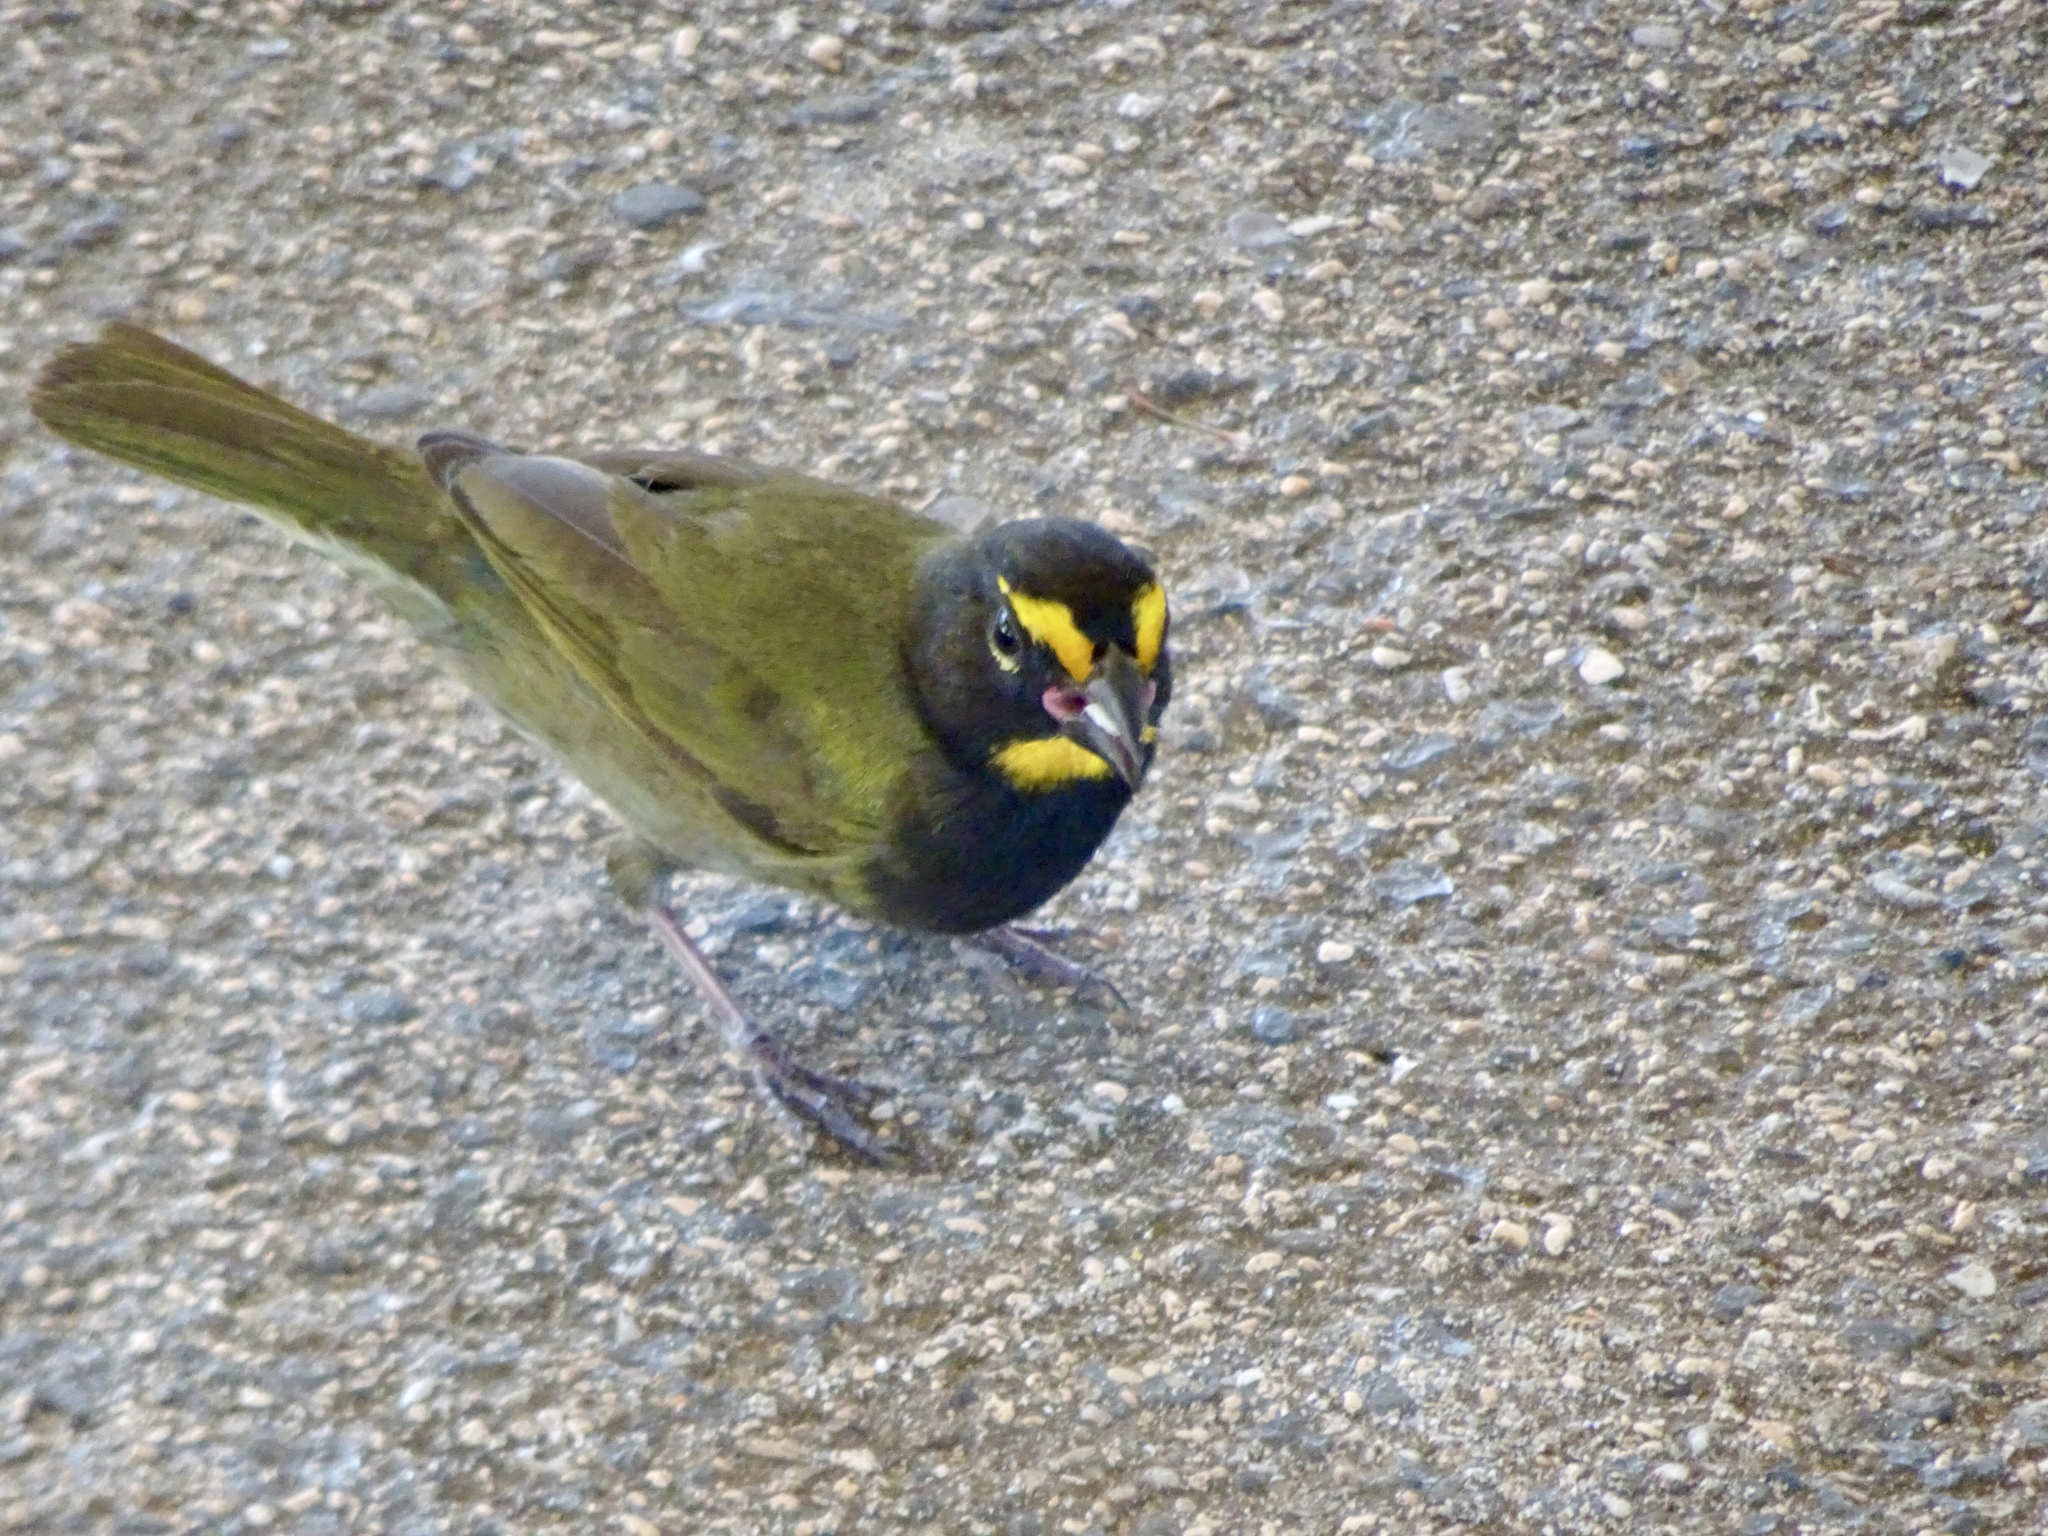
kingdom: Animalia
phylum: Chordata
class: Aves
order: Passeriformes
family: Thraupidae
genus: Tiaris
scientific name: Tiaris olivaceus
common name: Yellow-faced grassquit
